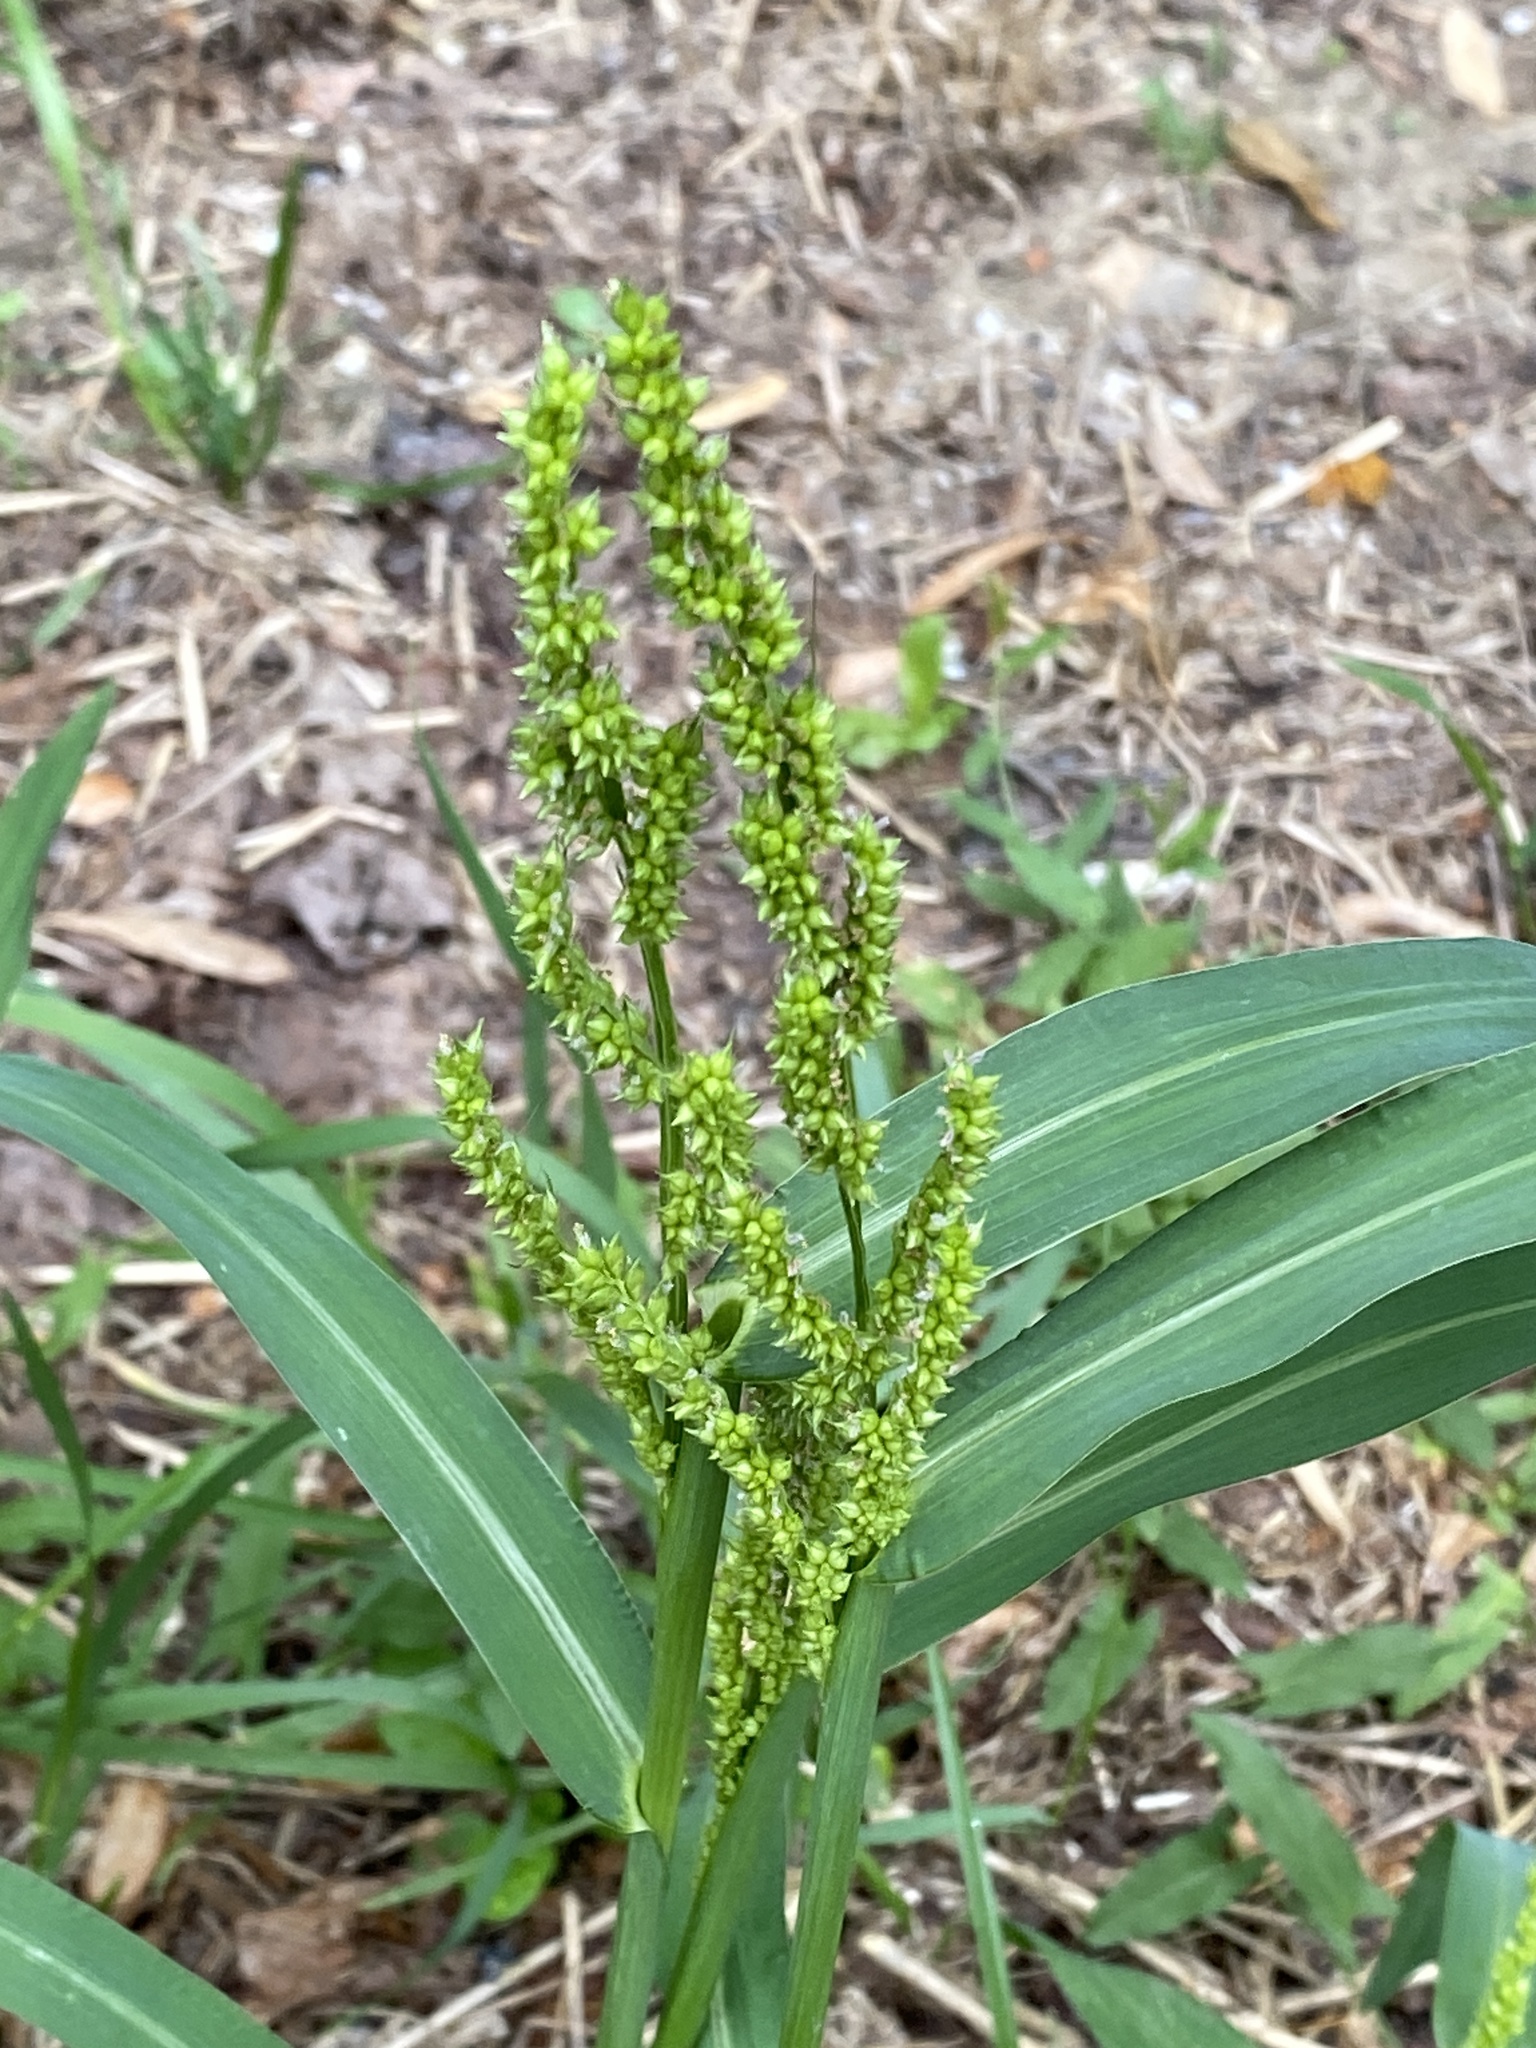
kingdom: Plantae
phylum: Tracheophyta
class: Liliopsida
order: Poales
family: Poaceae
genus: Echinochloa
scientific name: Echinochloa crus-galli
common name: Cockspur
